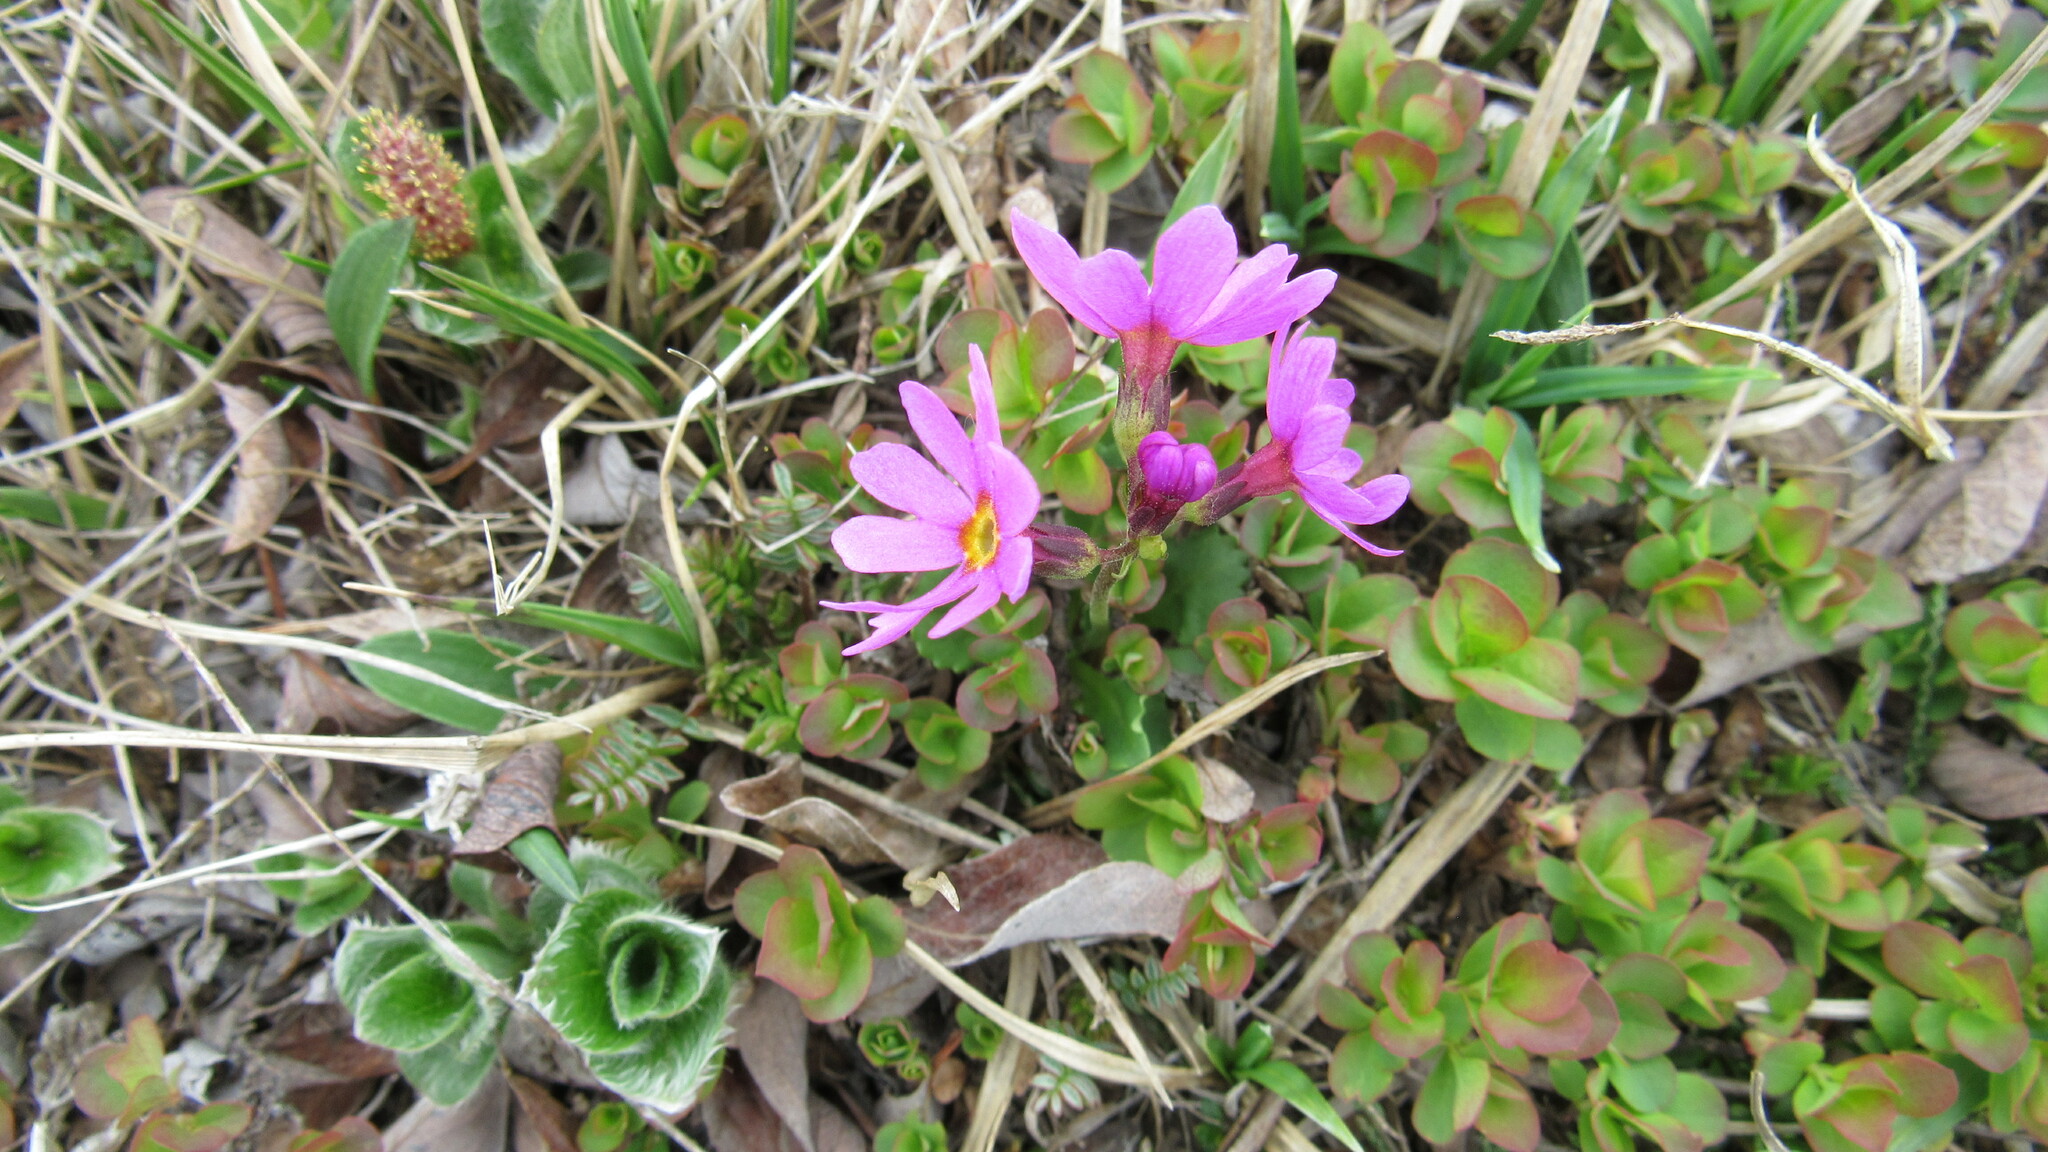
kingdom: Plantae
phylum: Tracheophyta
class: Magnoliopsida
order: Ericales
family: Primulaceae
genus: Primula
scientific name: Primula cuneifolia
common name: Wedge-leaved primrose
